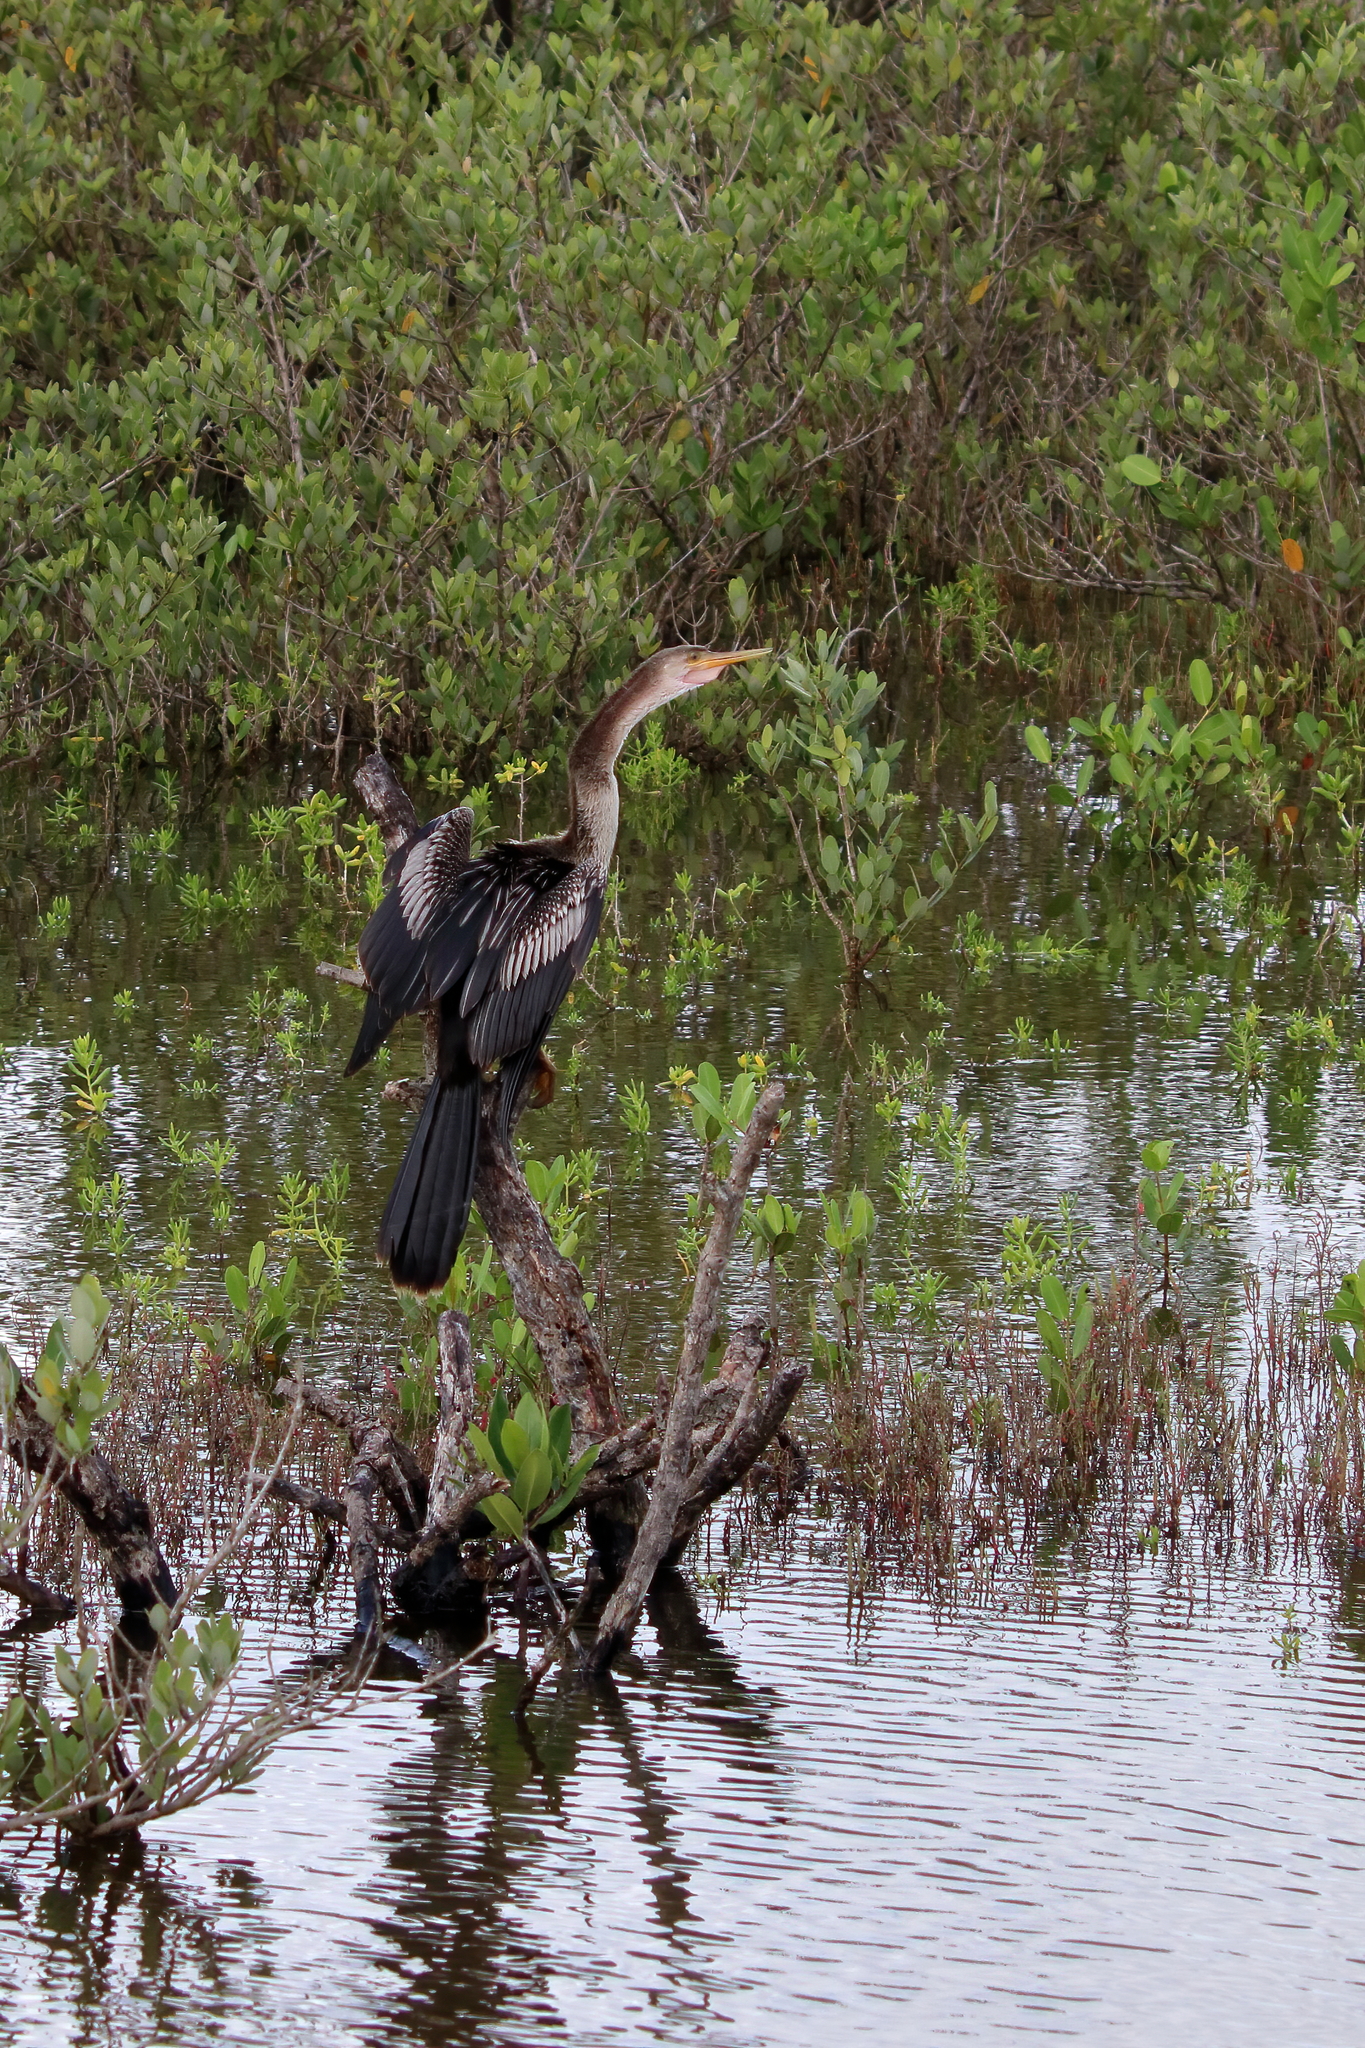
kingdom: Animalia
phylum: Chordata
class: Aves
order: Suliformes
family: Anhingidae
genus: Anhinga
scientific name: Anhinga anhinga
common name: Anhinga
